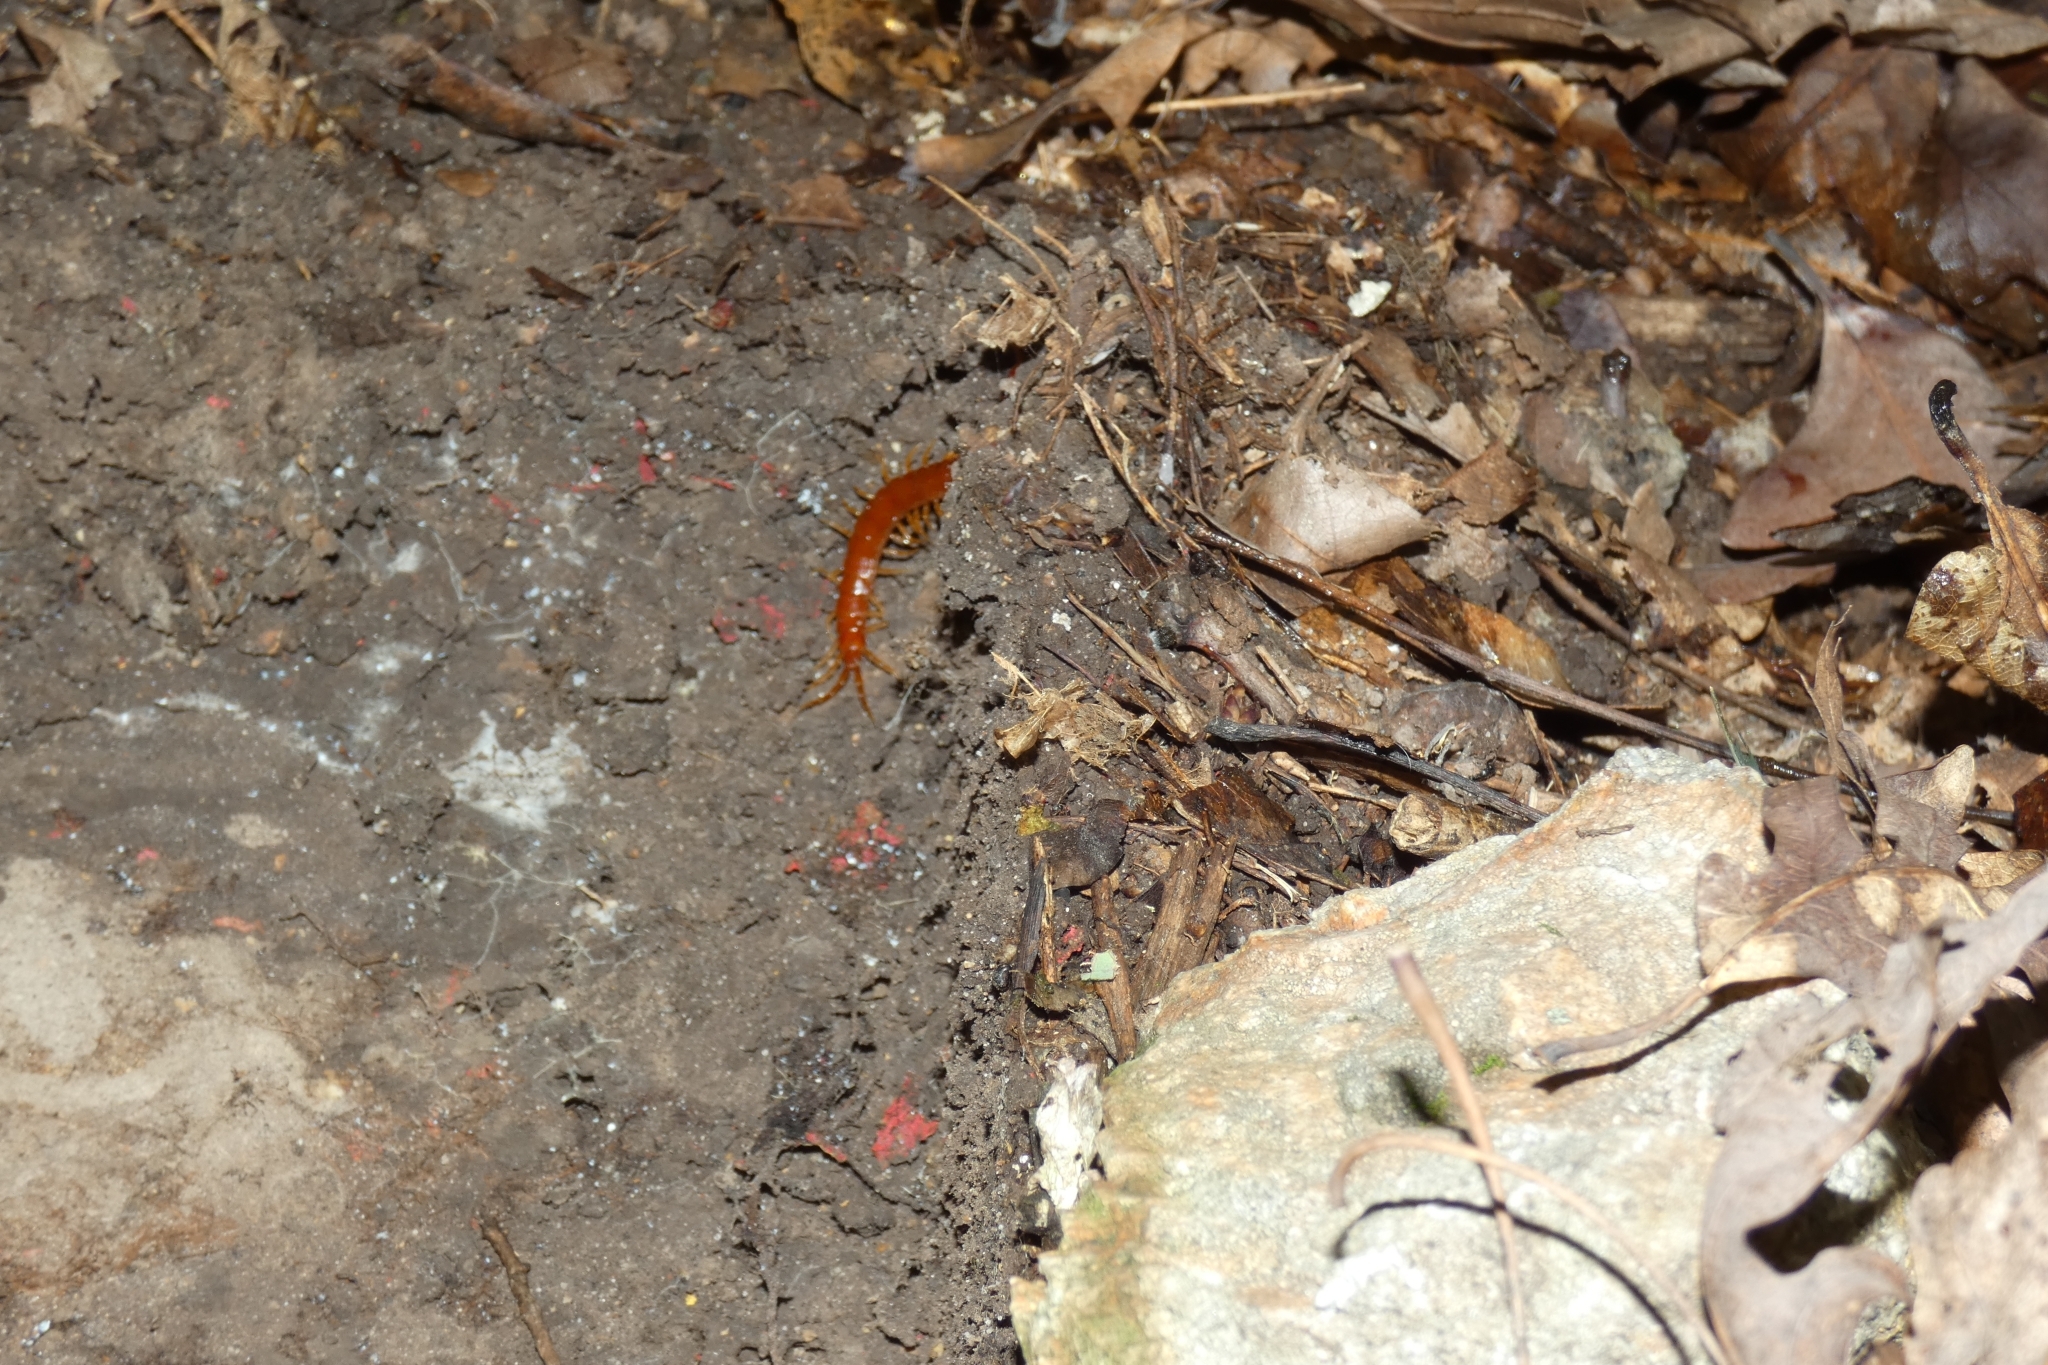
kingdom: Animalia
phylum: Arthropoda
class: Chilopoda
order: Scolopendromorpha
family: Scolopocryptopidae
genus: Scolopocryptops
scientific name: Scolopocryptops sexspinosus
